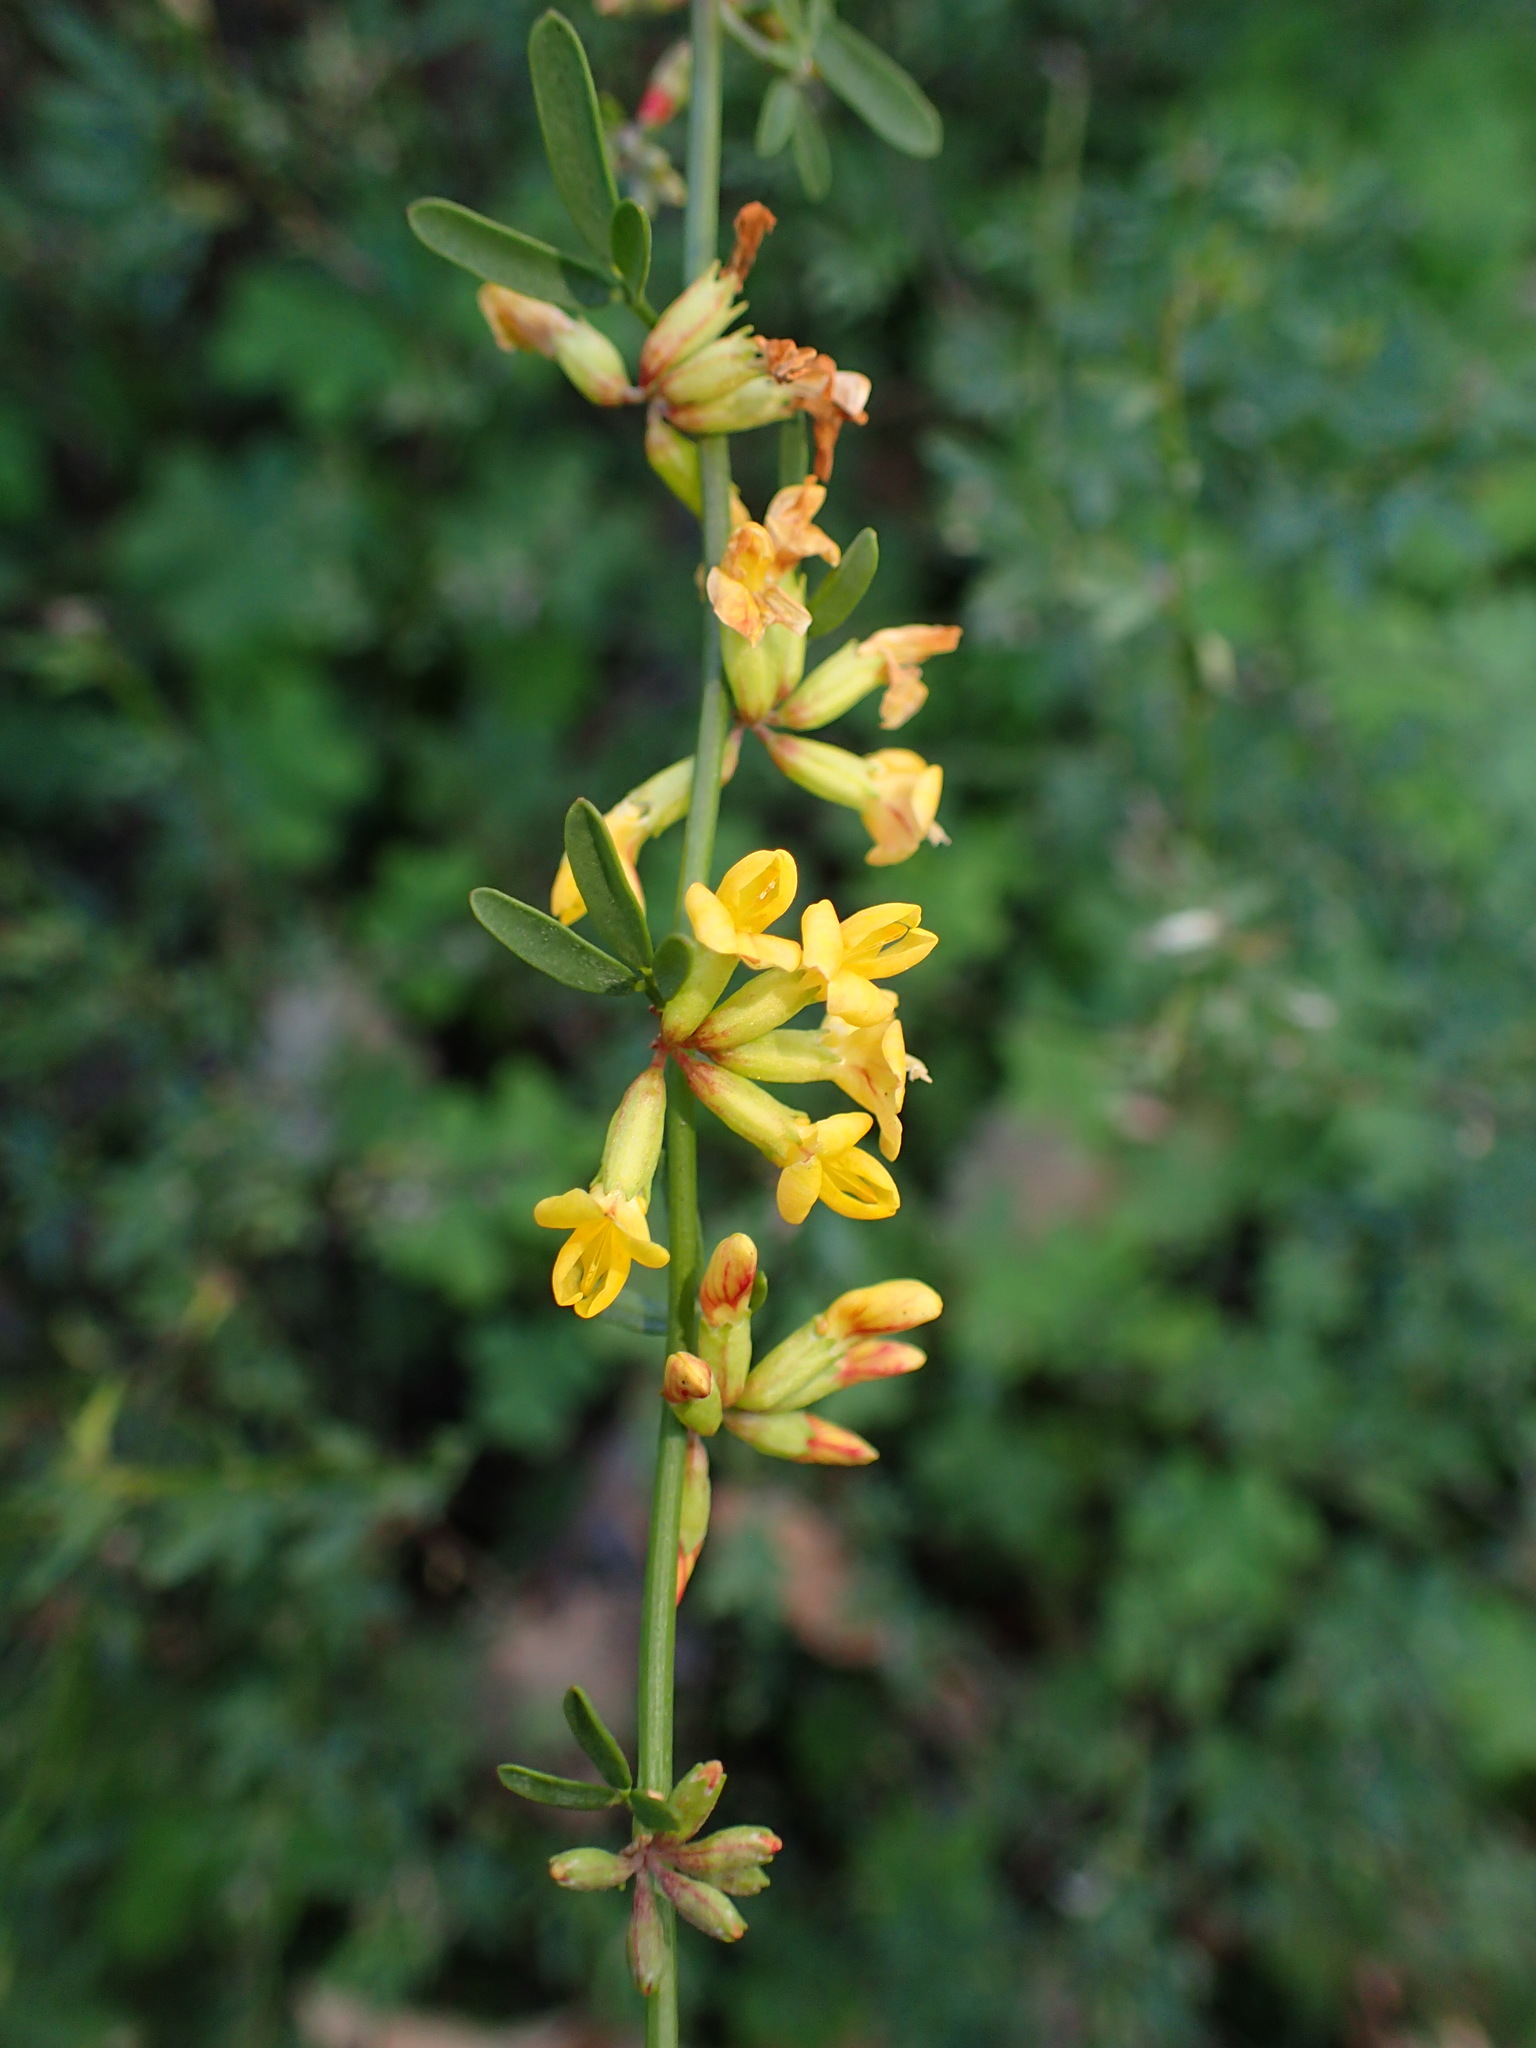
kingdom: Plantae
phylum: Tracheophyta
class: Magnoliopsida
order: Fabales
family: Fabaceae
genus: Acmispon
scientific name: Acmispon glaber
